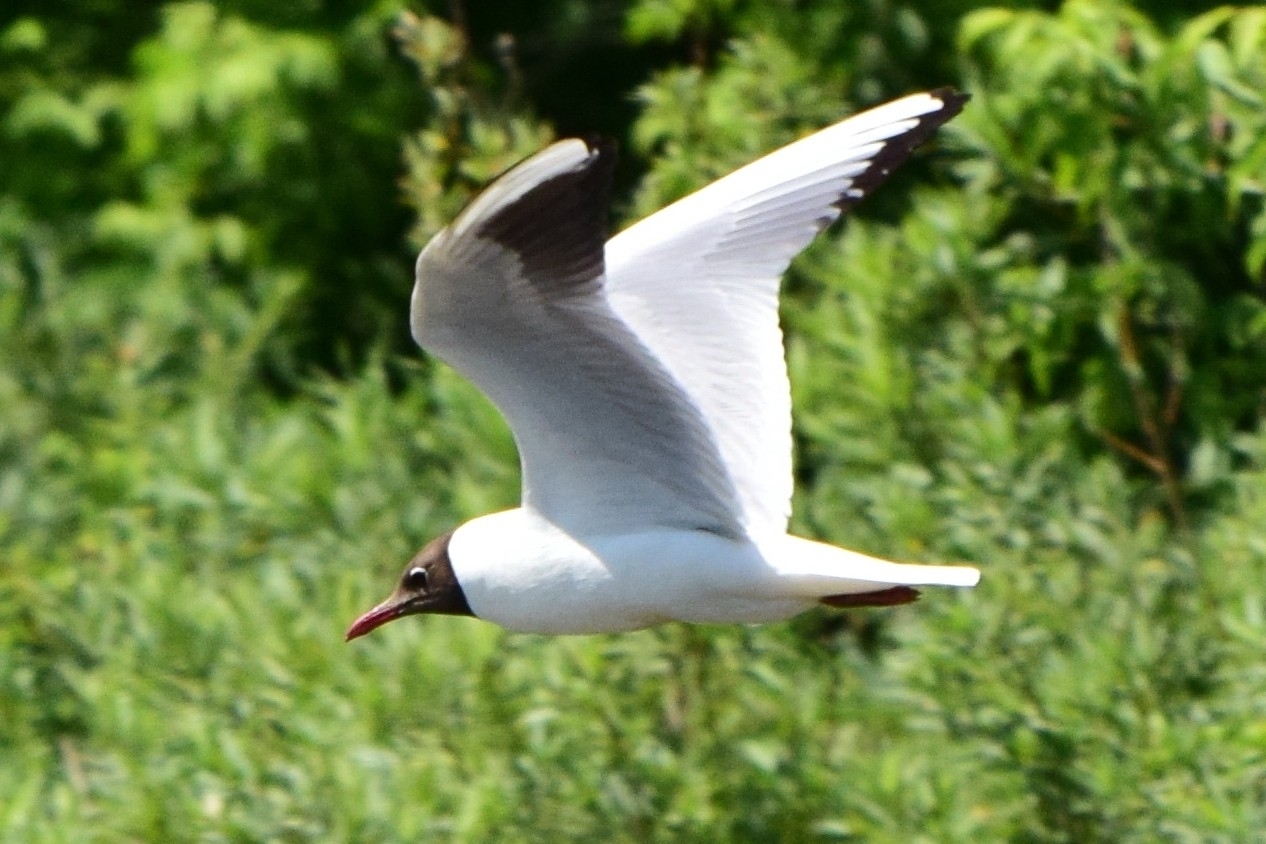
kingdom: Animalia
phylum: Chordata
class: Aves
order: Charadriiformes
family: Laridae
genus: Chroicocephalus
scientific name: Chroicocephalus ridibundus
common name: Black-headed gull
